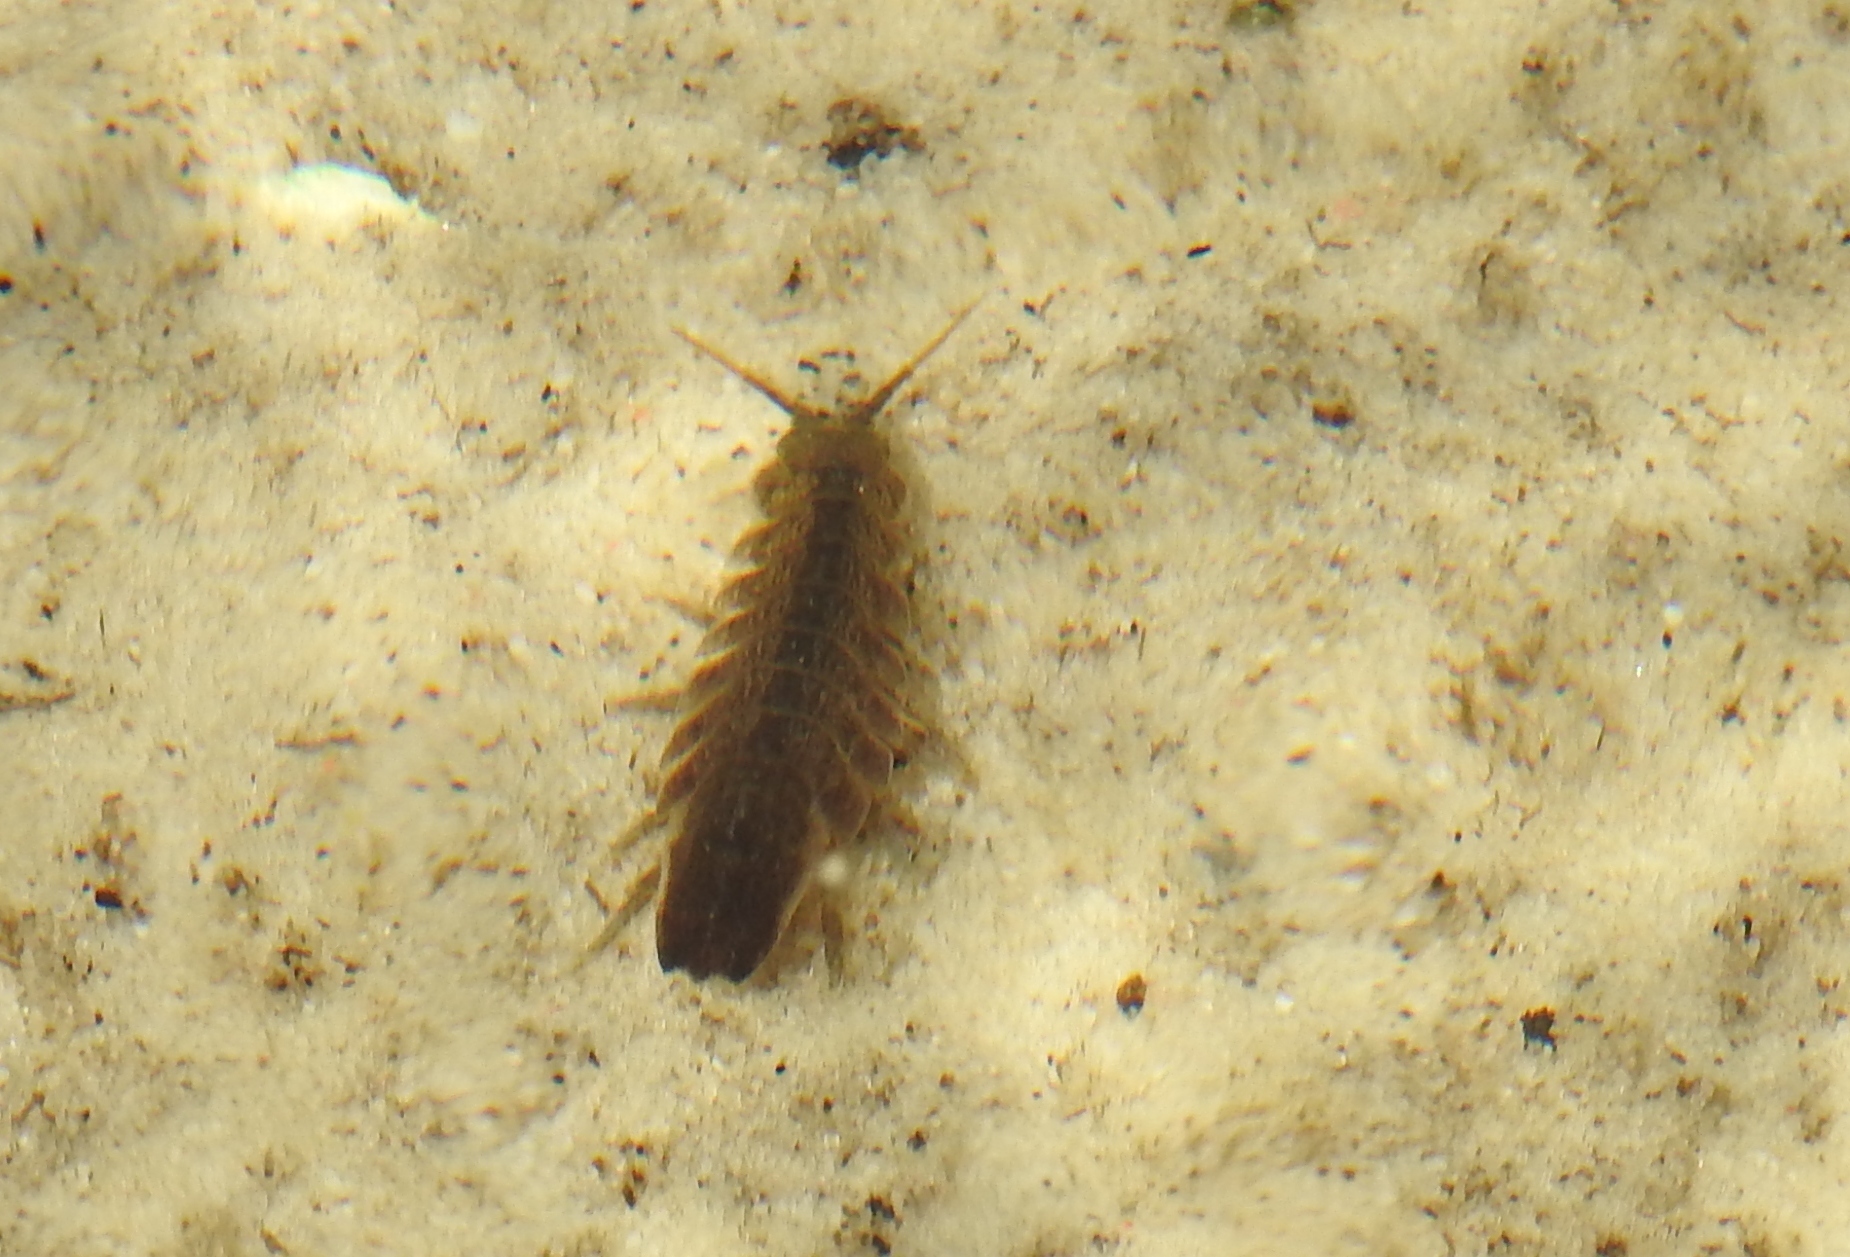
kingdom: Animalia
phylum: Arthropoda
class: Malacostraca
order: Isopoda
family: Idoteidae
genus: Idotea
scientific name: Idotea balthica
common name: Baltic isopod
